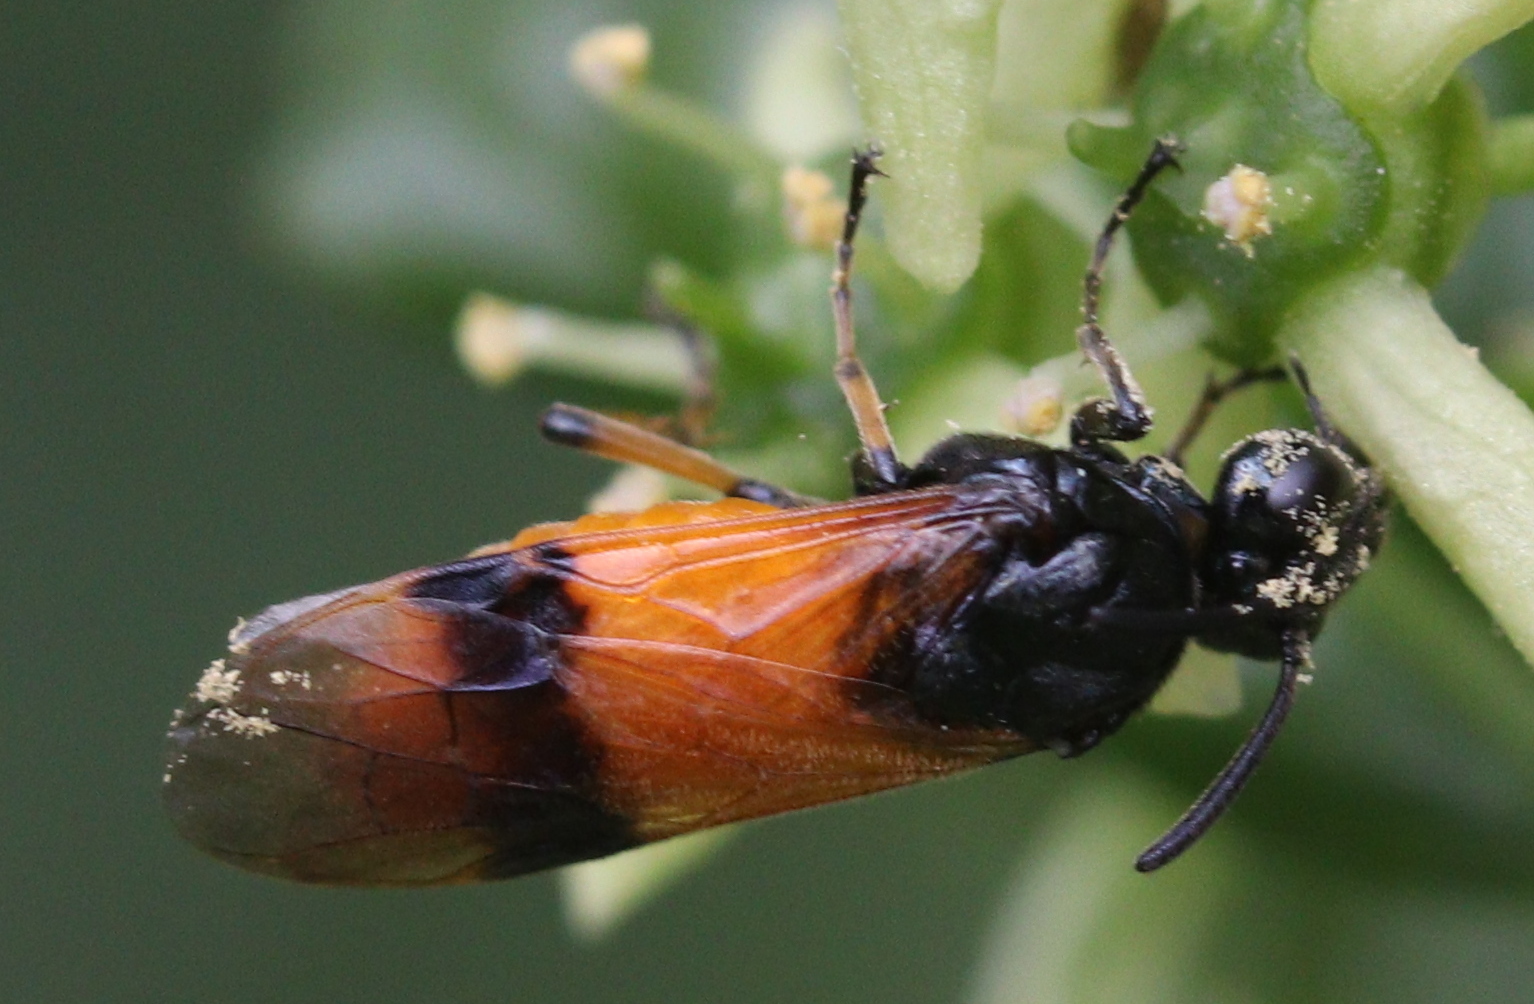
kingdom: Animalia
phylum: Arthropoda
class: Insecta
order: Hymenoptera
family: Argidae
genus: Arge
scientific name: Arge cyanocrocea
